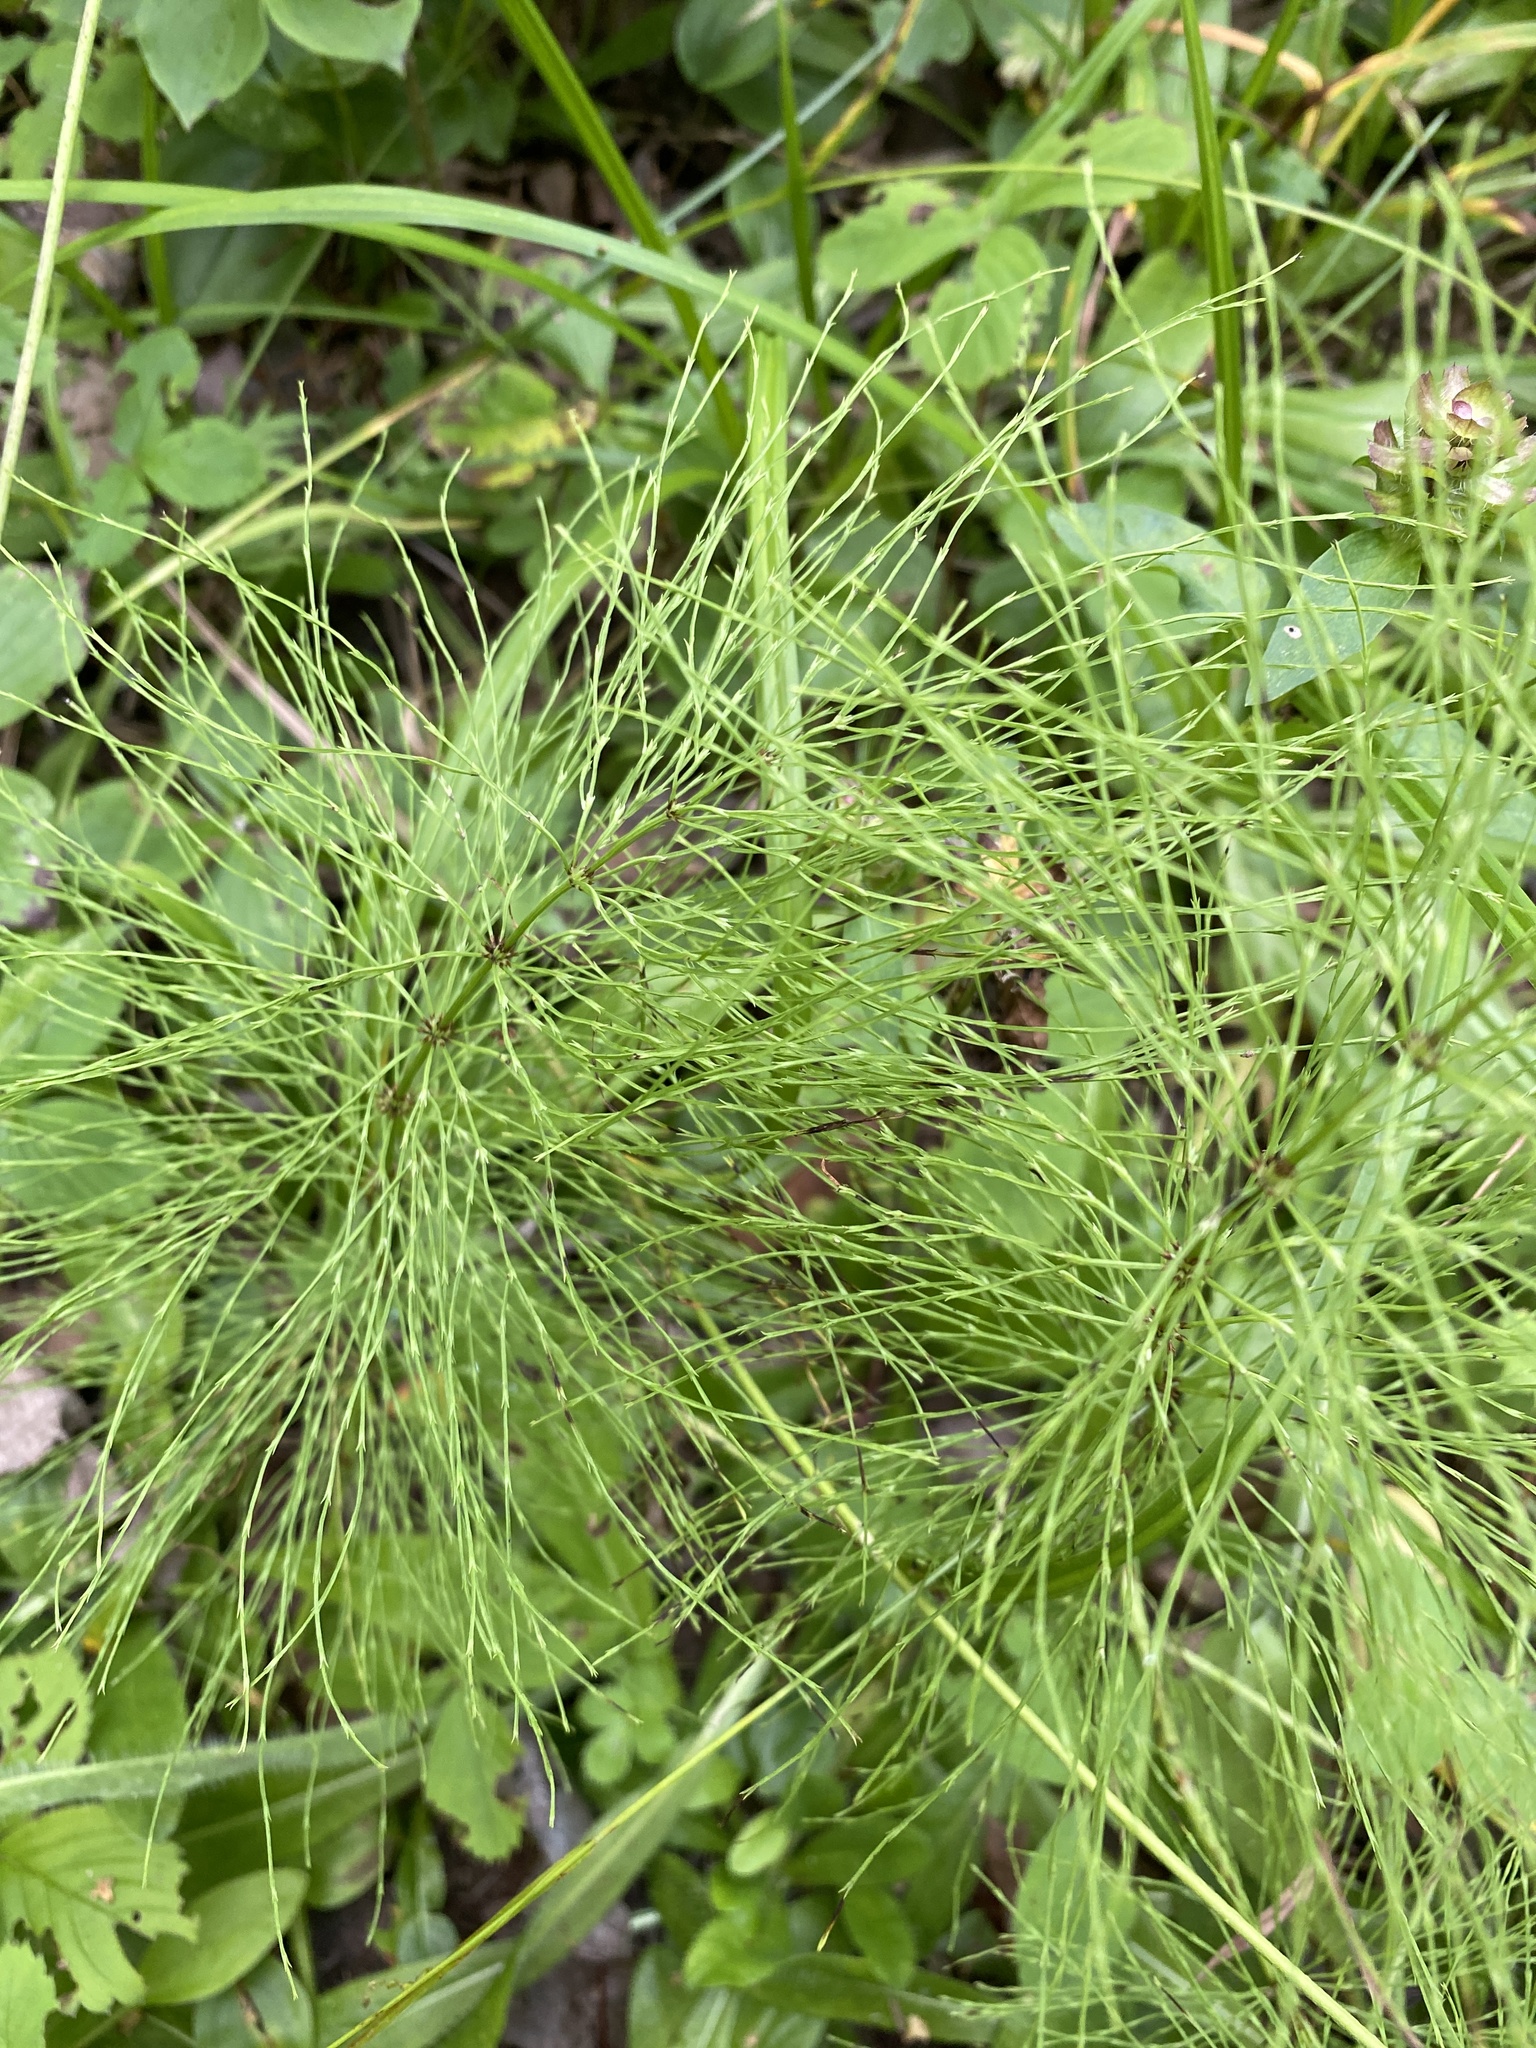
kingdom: Plantae
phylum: Tracheophyta
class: Polypodiopsida
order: Equisetales
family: Equisetaceae
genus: Equisetum
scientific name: Equisetum sylvaticum
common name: Wood horsetail
